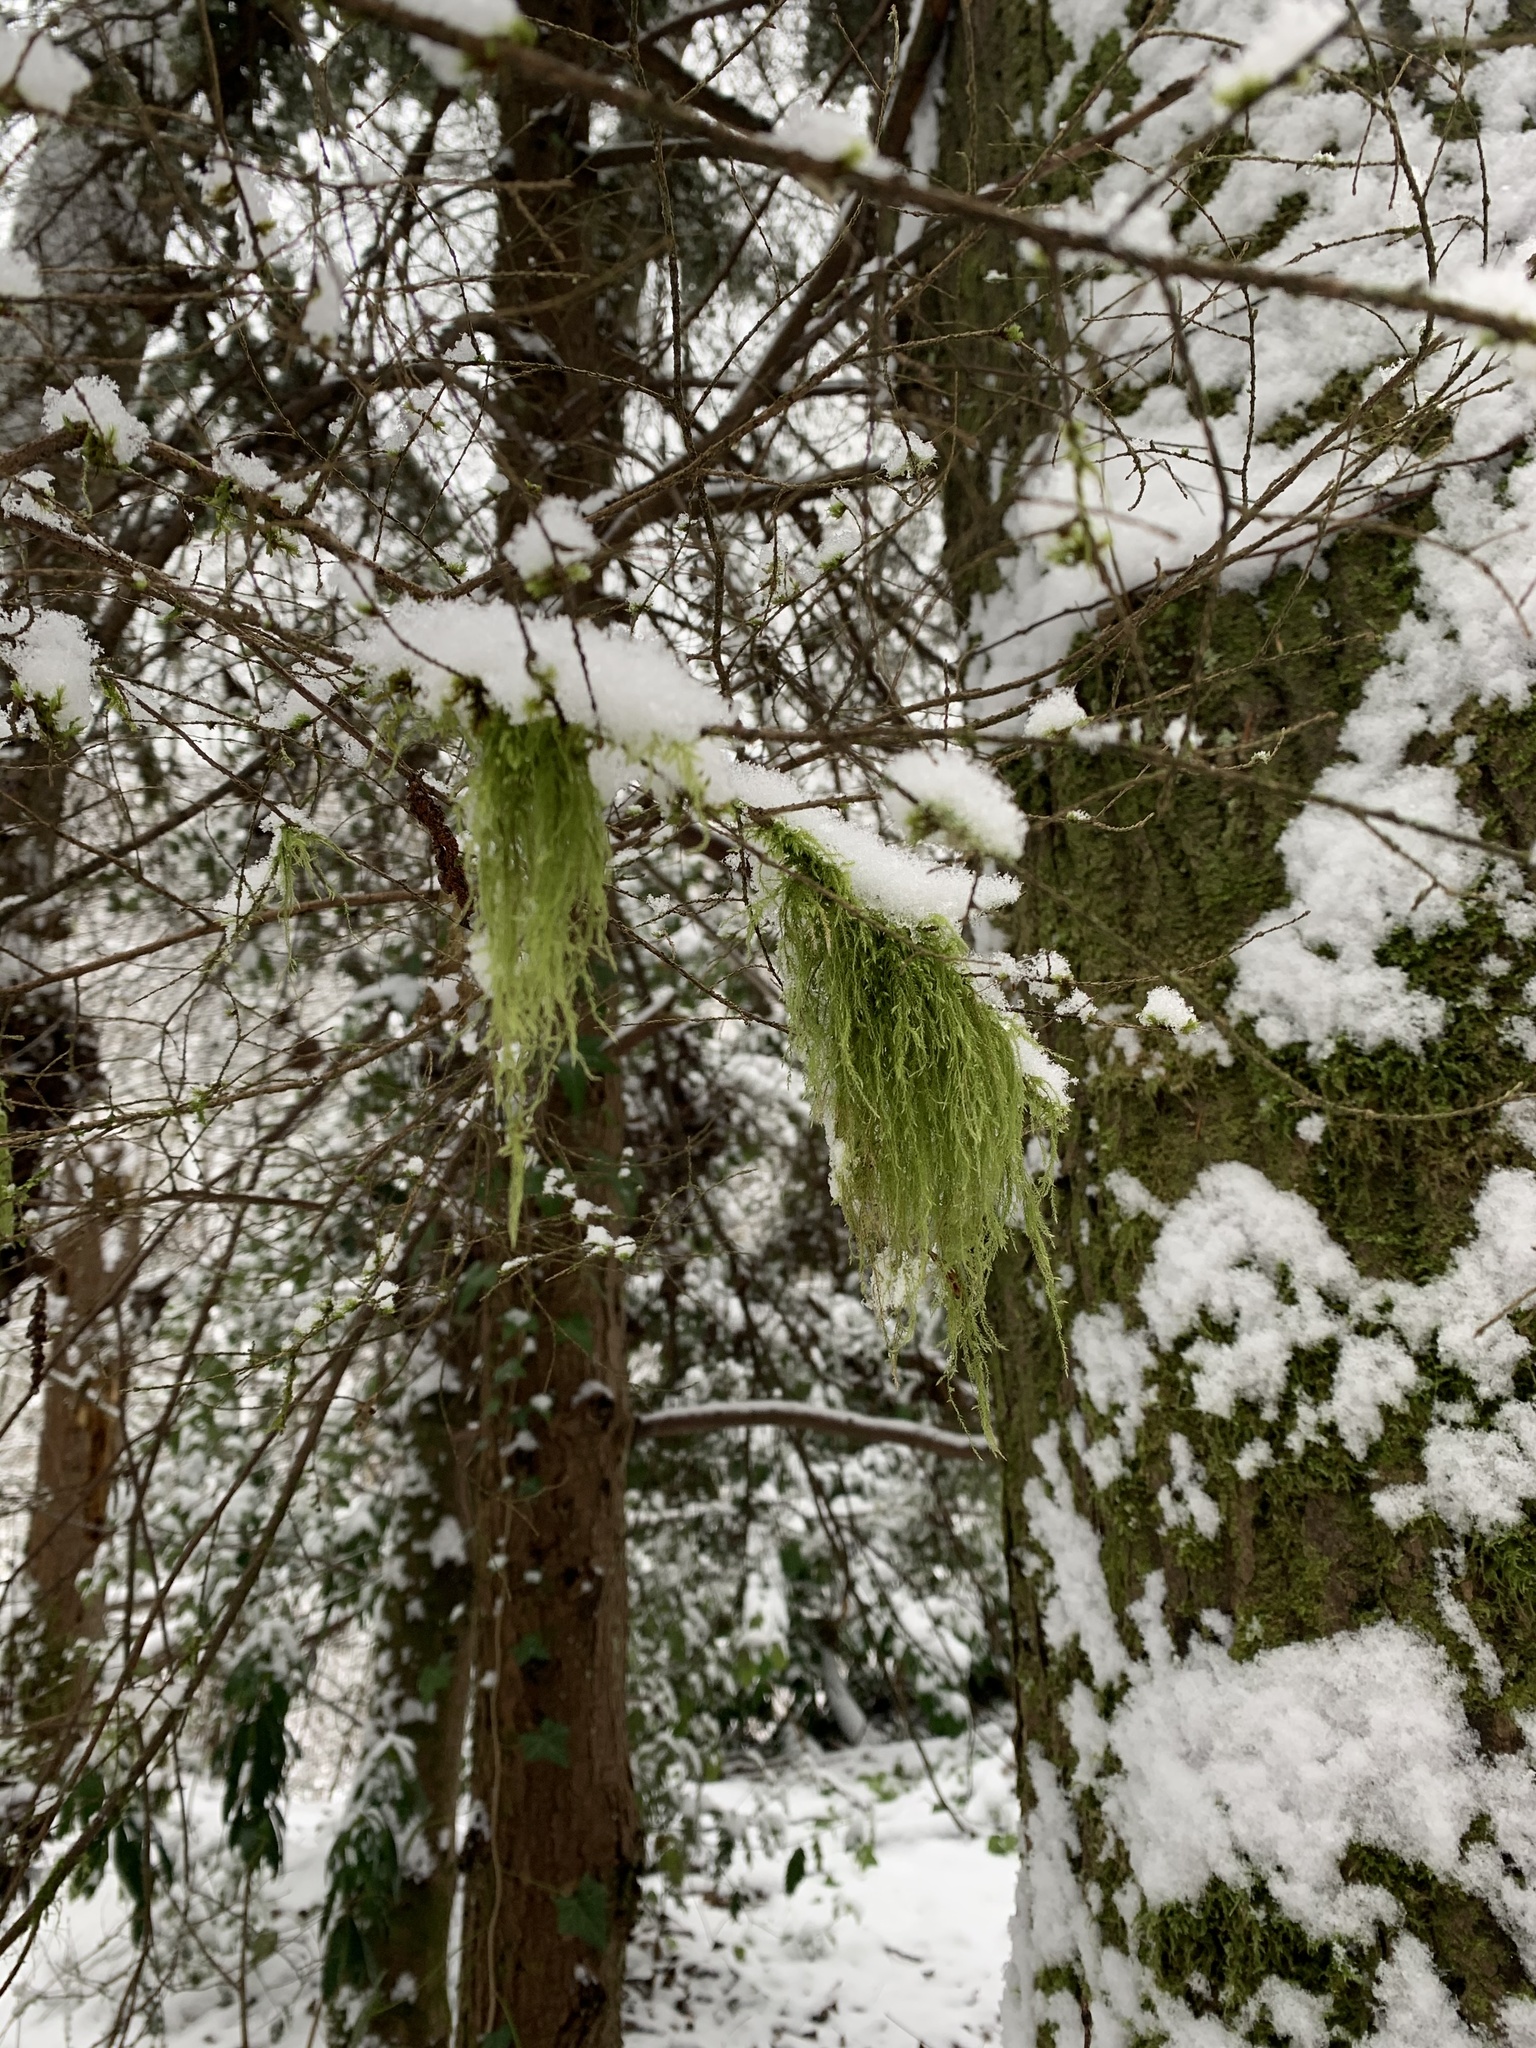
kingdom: Plantae
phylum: Bryophyta
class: Bryopsida
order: Hypnales
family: Lembophyllaceae
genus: Pseudisothecium
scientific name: Pseudisothecium stoloniferum
